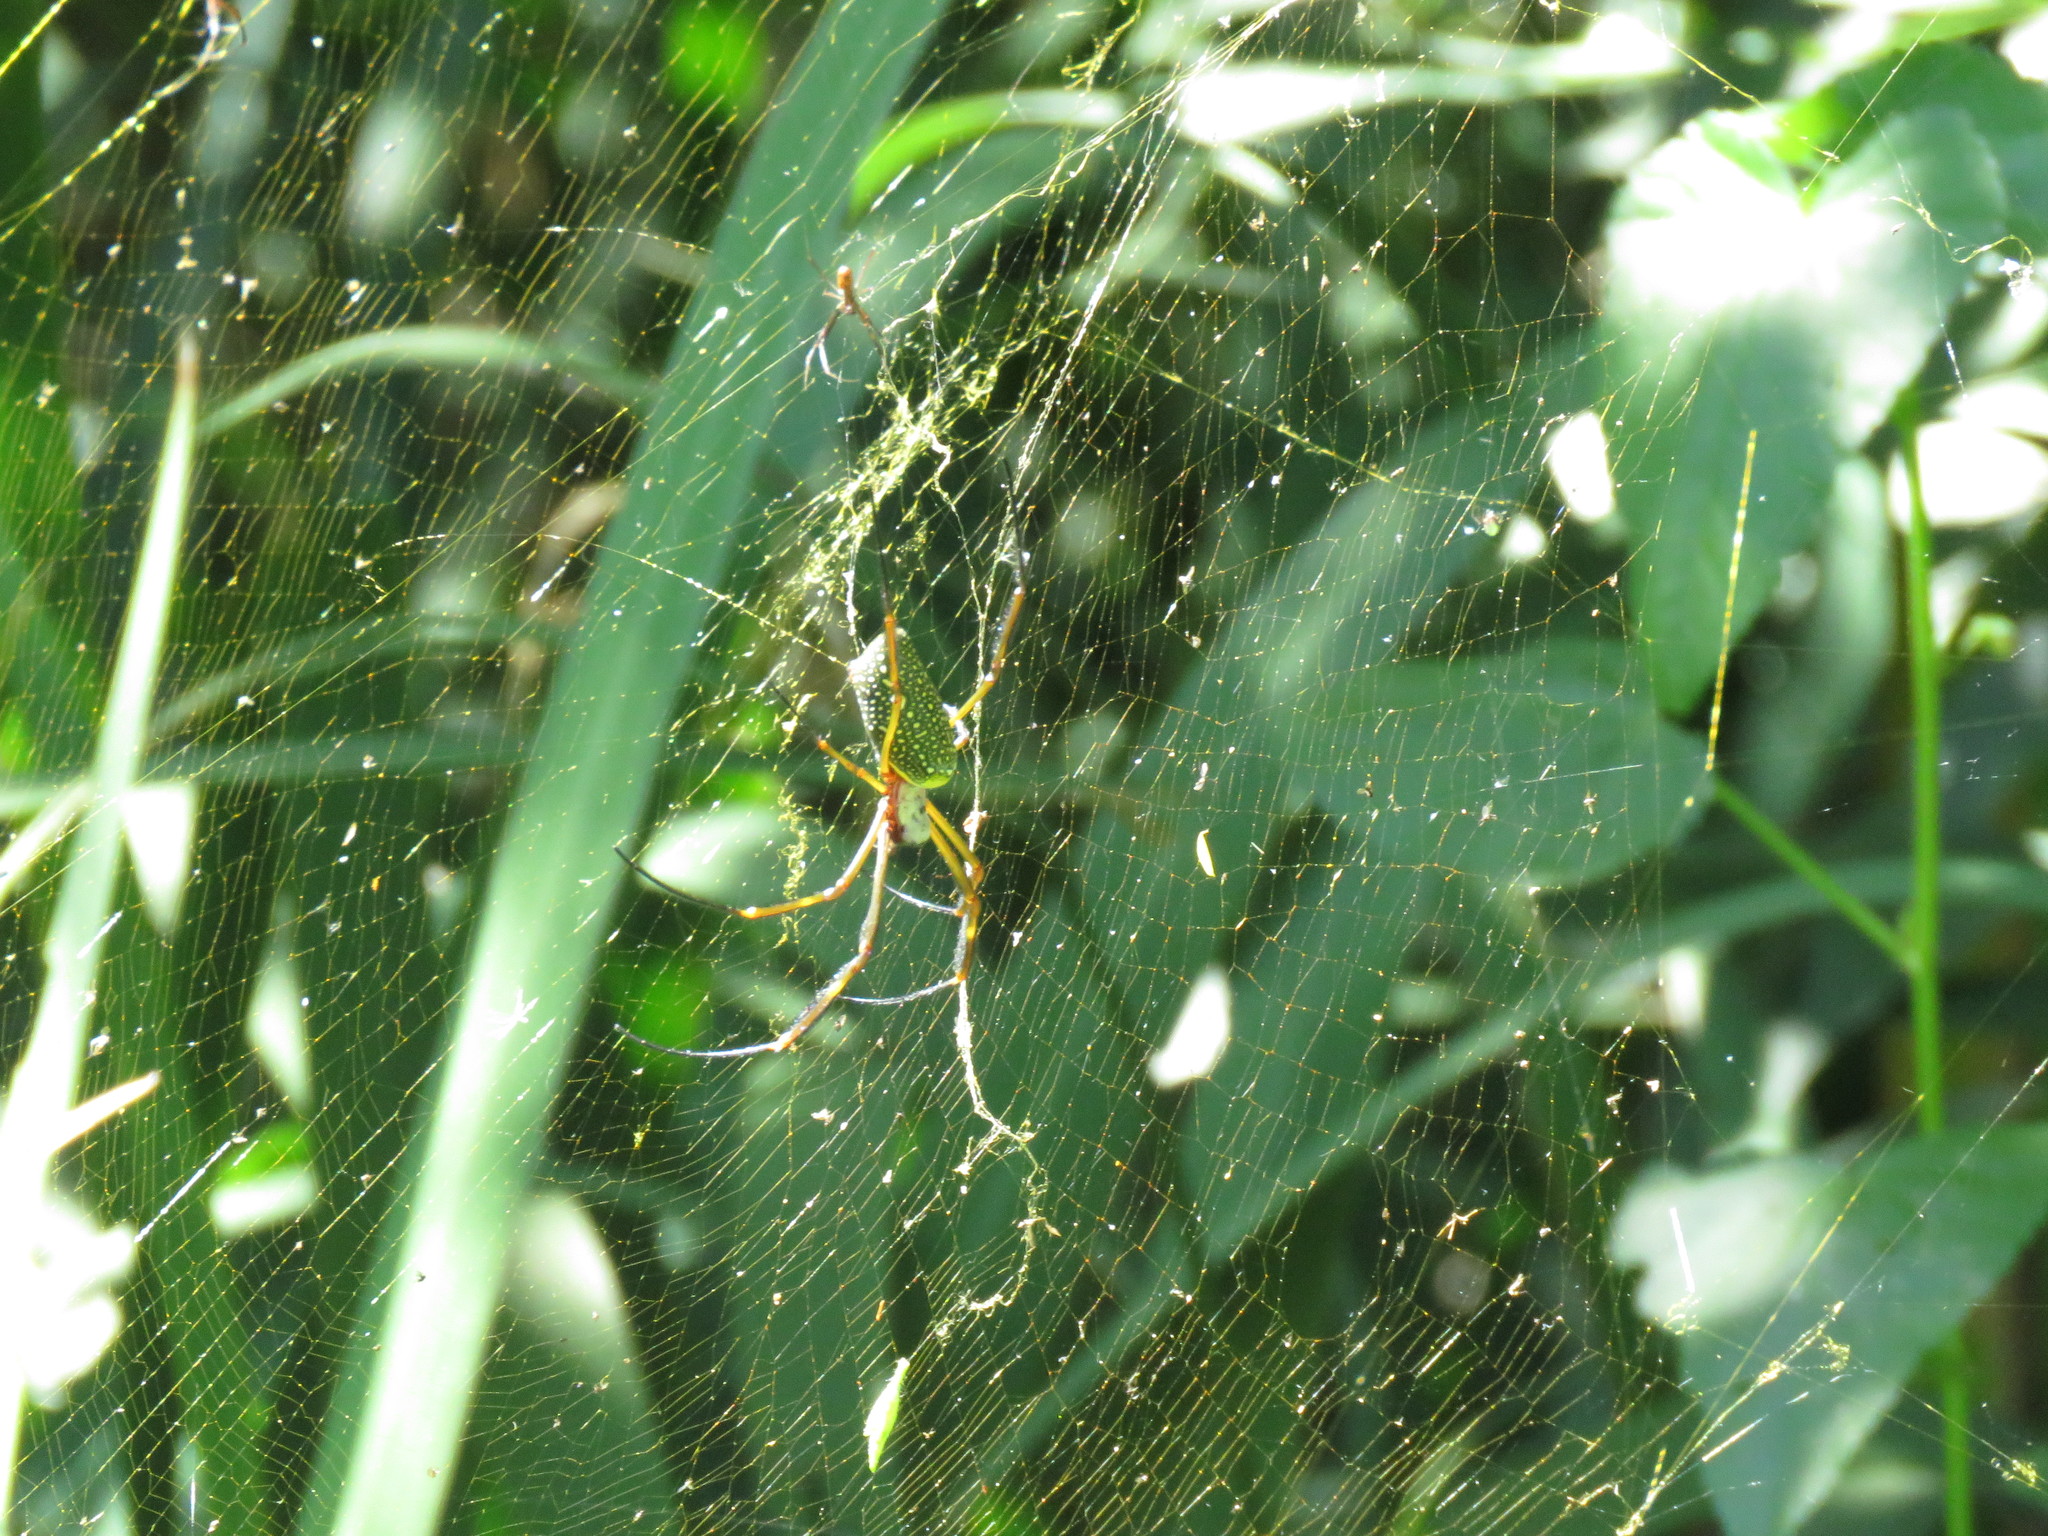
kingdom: Animalia
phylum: Arthropoda
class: Arachnida
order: Araneae
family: Araneidae
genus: Trichonephila
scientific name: Trichonephila clavipes
